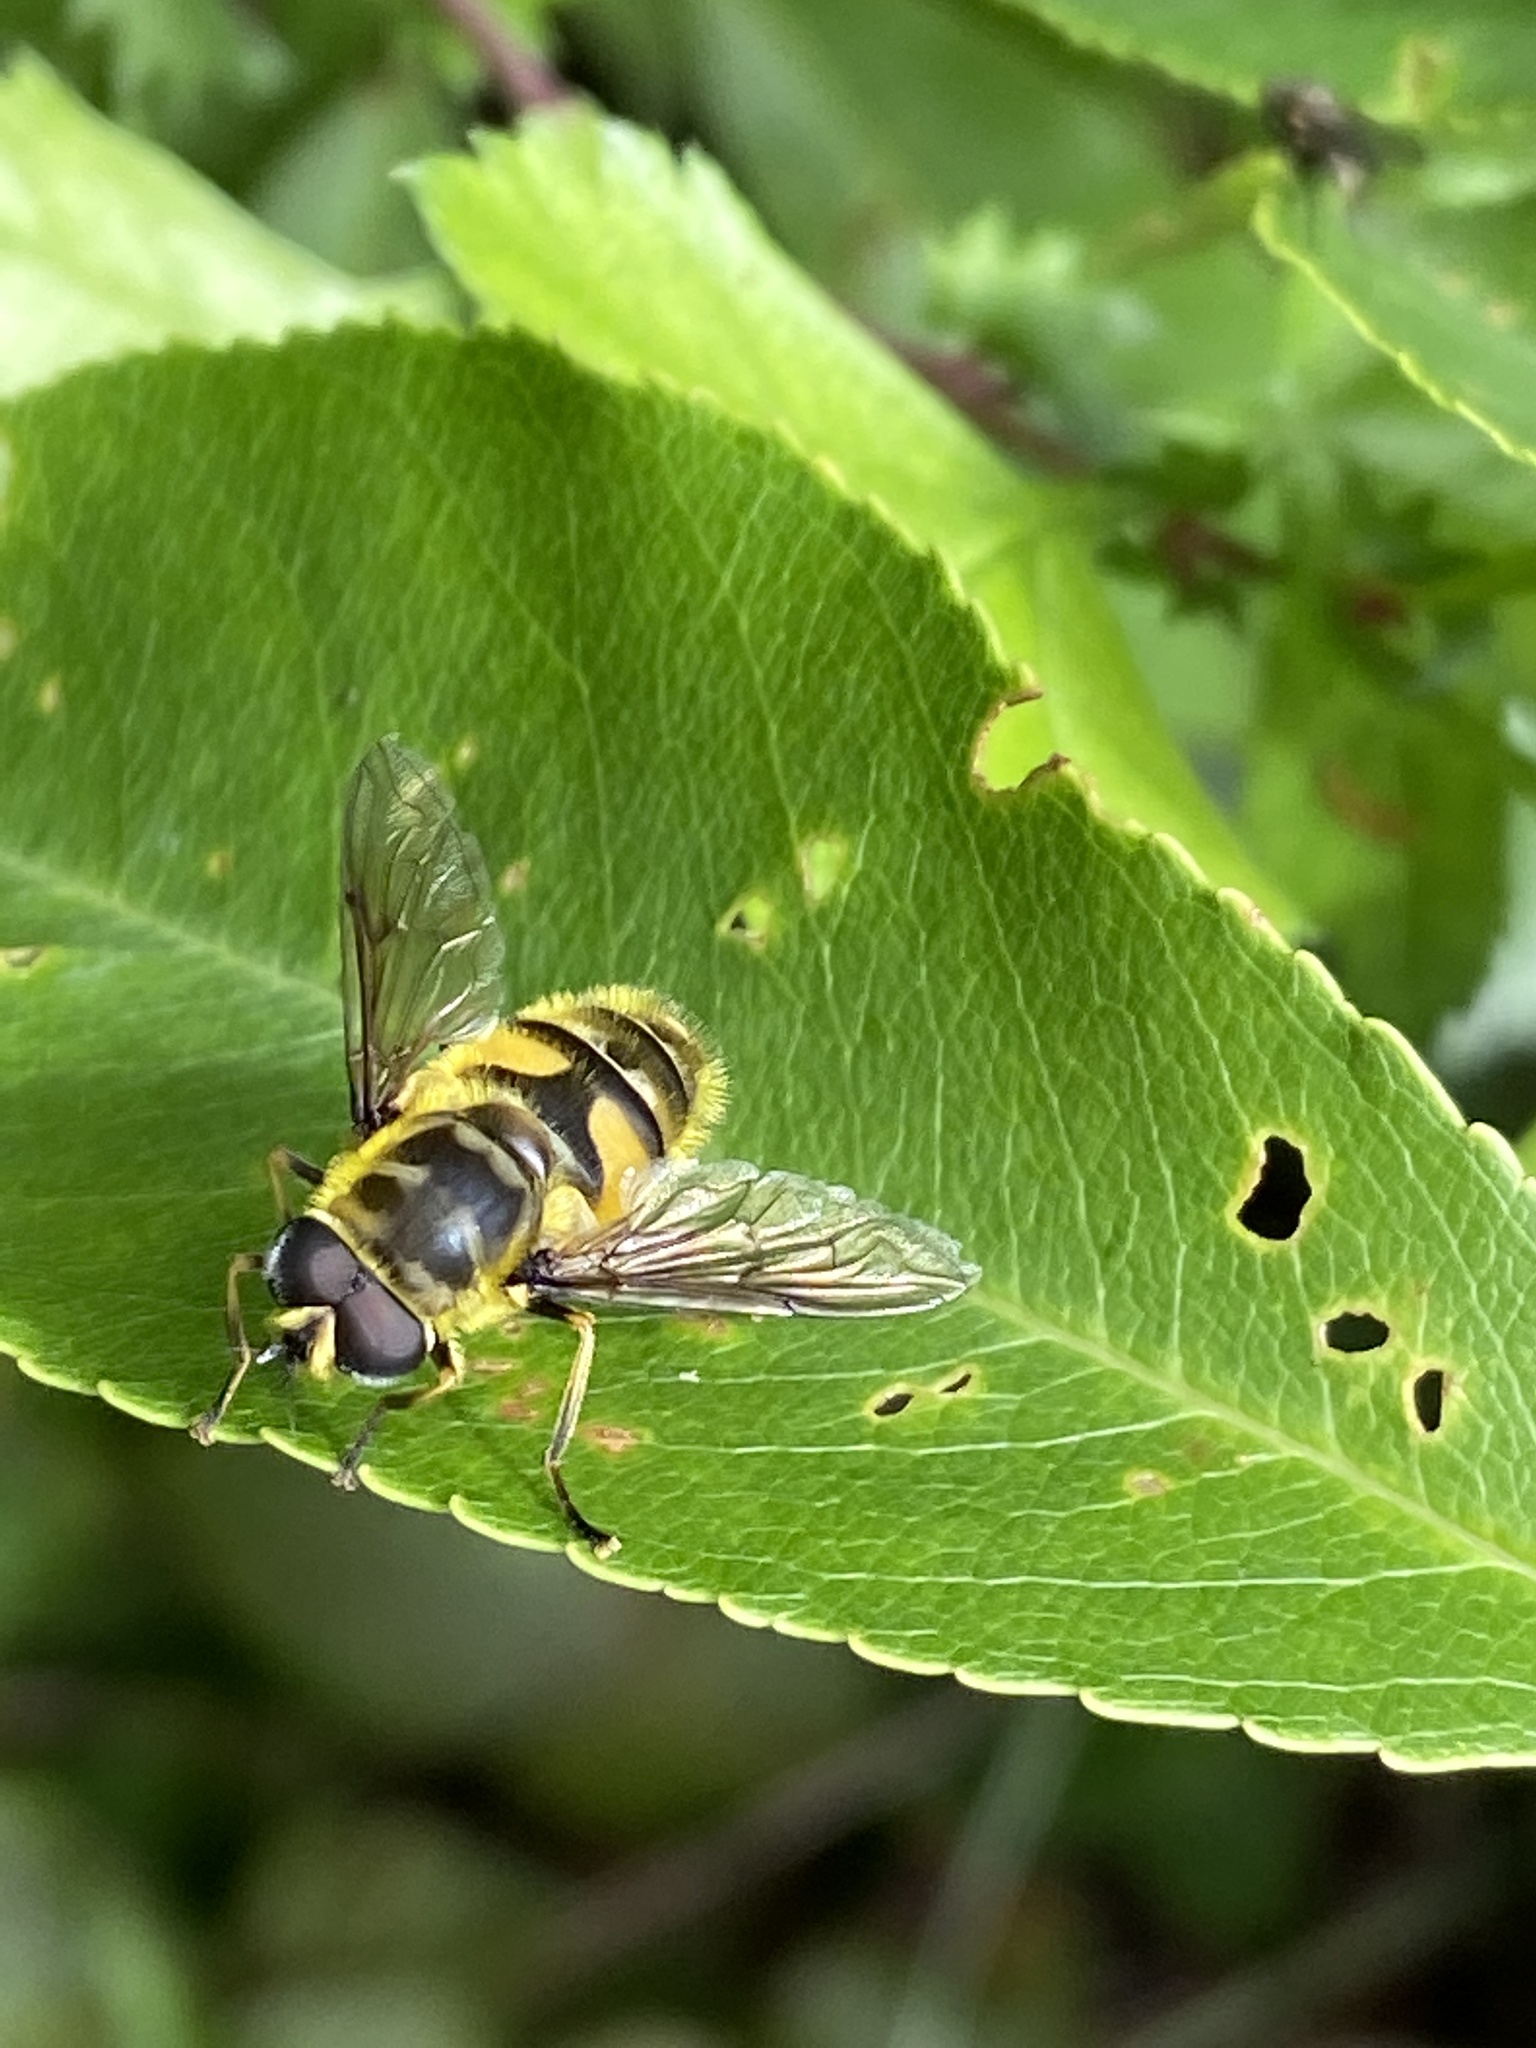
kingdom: Animalia
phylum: Arthropoda
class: Insecta
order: Diptera
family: Syrphidae
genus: Myathropa
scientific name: Myathropa florea
